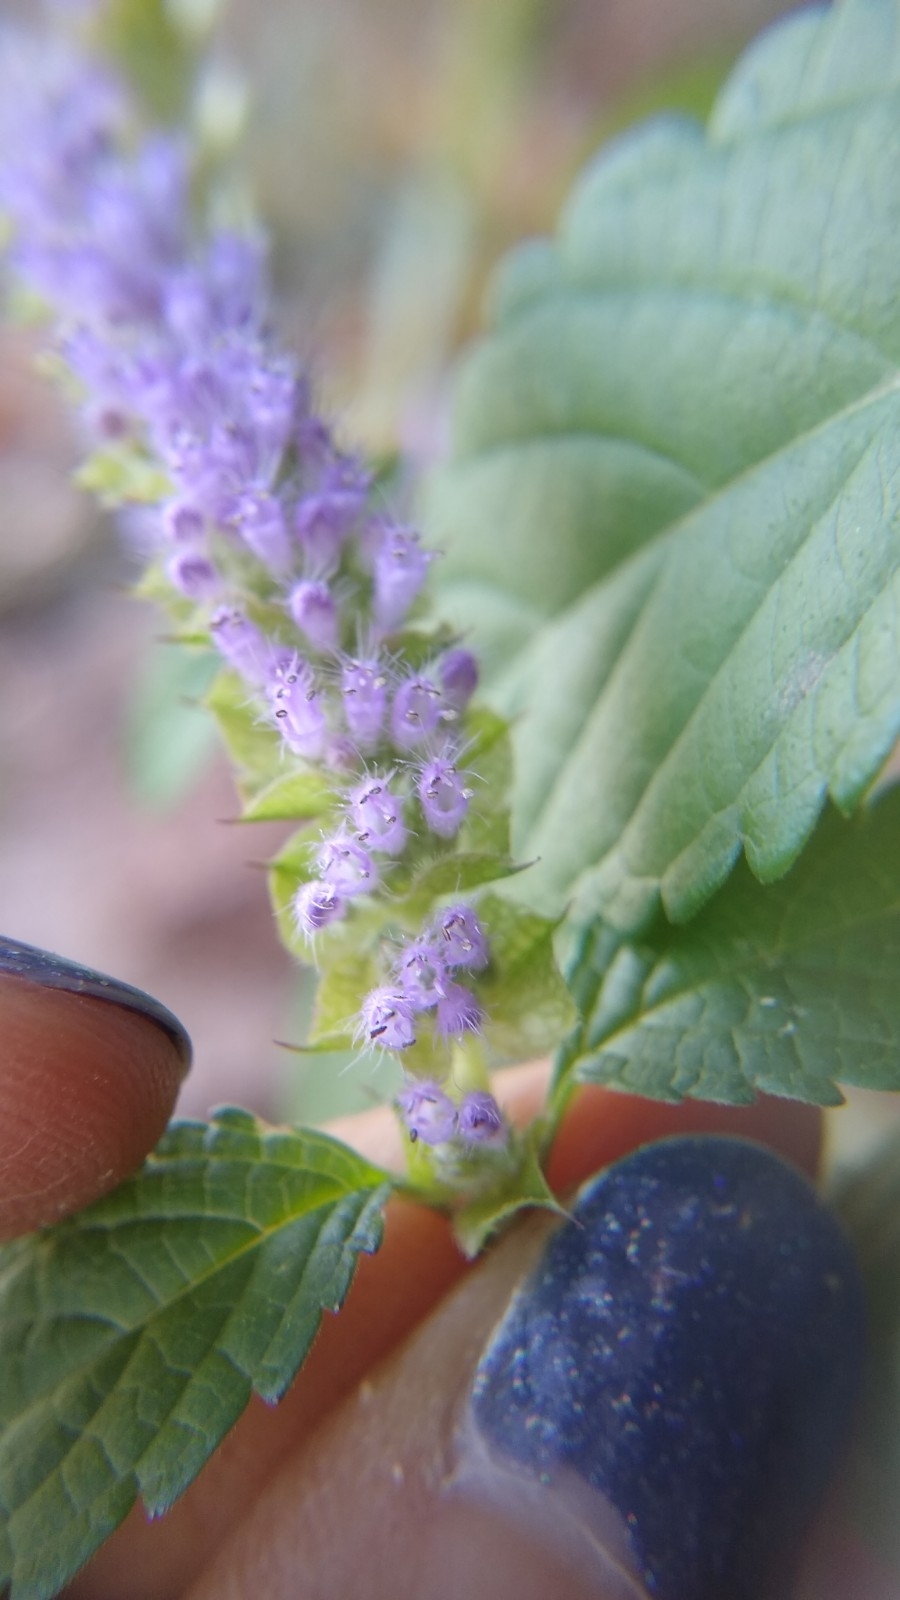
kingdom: Plantae
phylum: Tracheophyta
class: Magnoliopsida
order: Lamiales
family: Lamiaceae
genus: Elsholtzia
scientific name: Elsholtzia ciliata
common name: Ciliate elsholtzia
